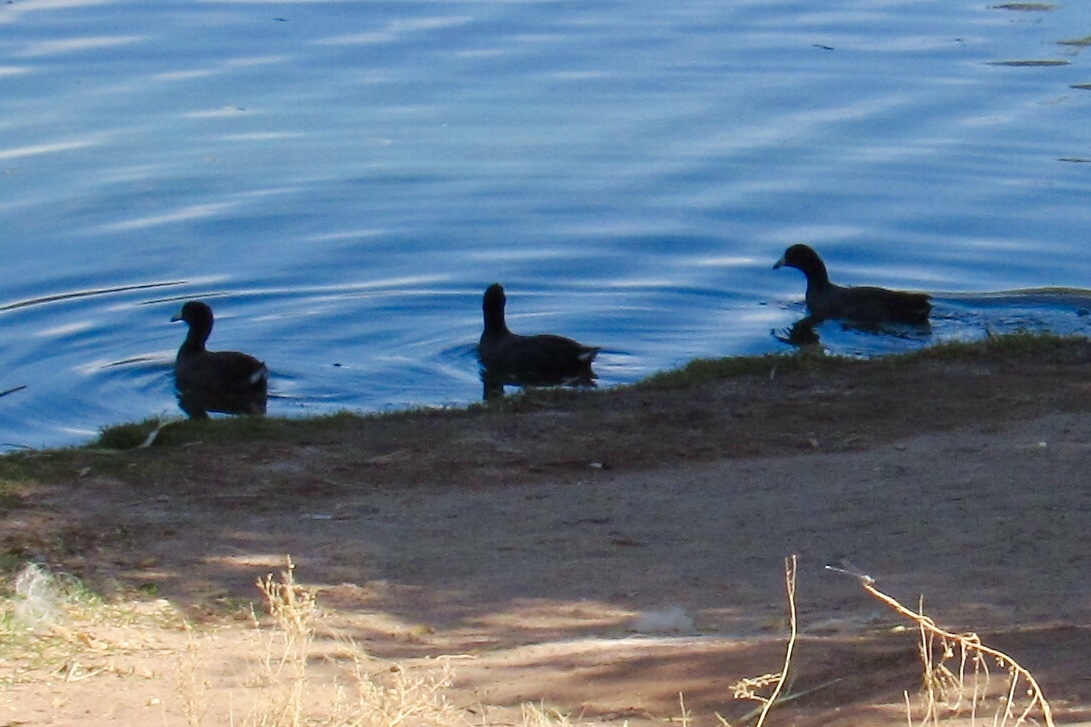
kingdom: Animalia
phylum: Chordata
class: Aves
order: Gruiformes
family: Rallidae
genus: Fulica
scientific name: Fulica americana
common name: American coot
